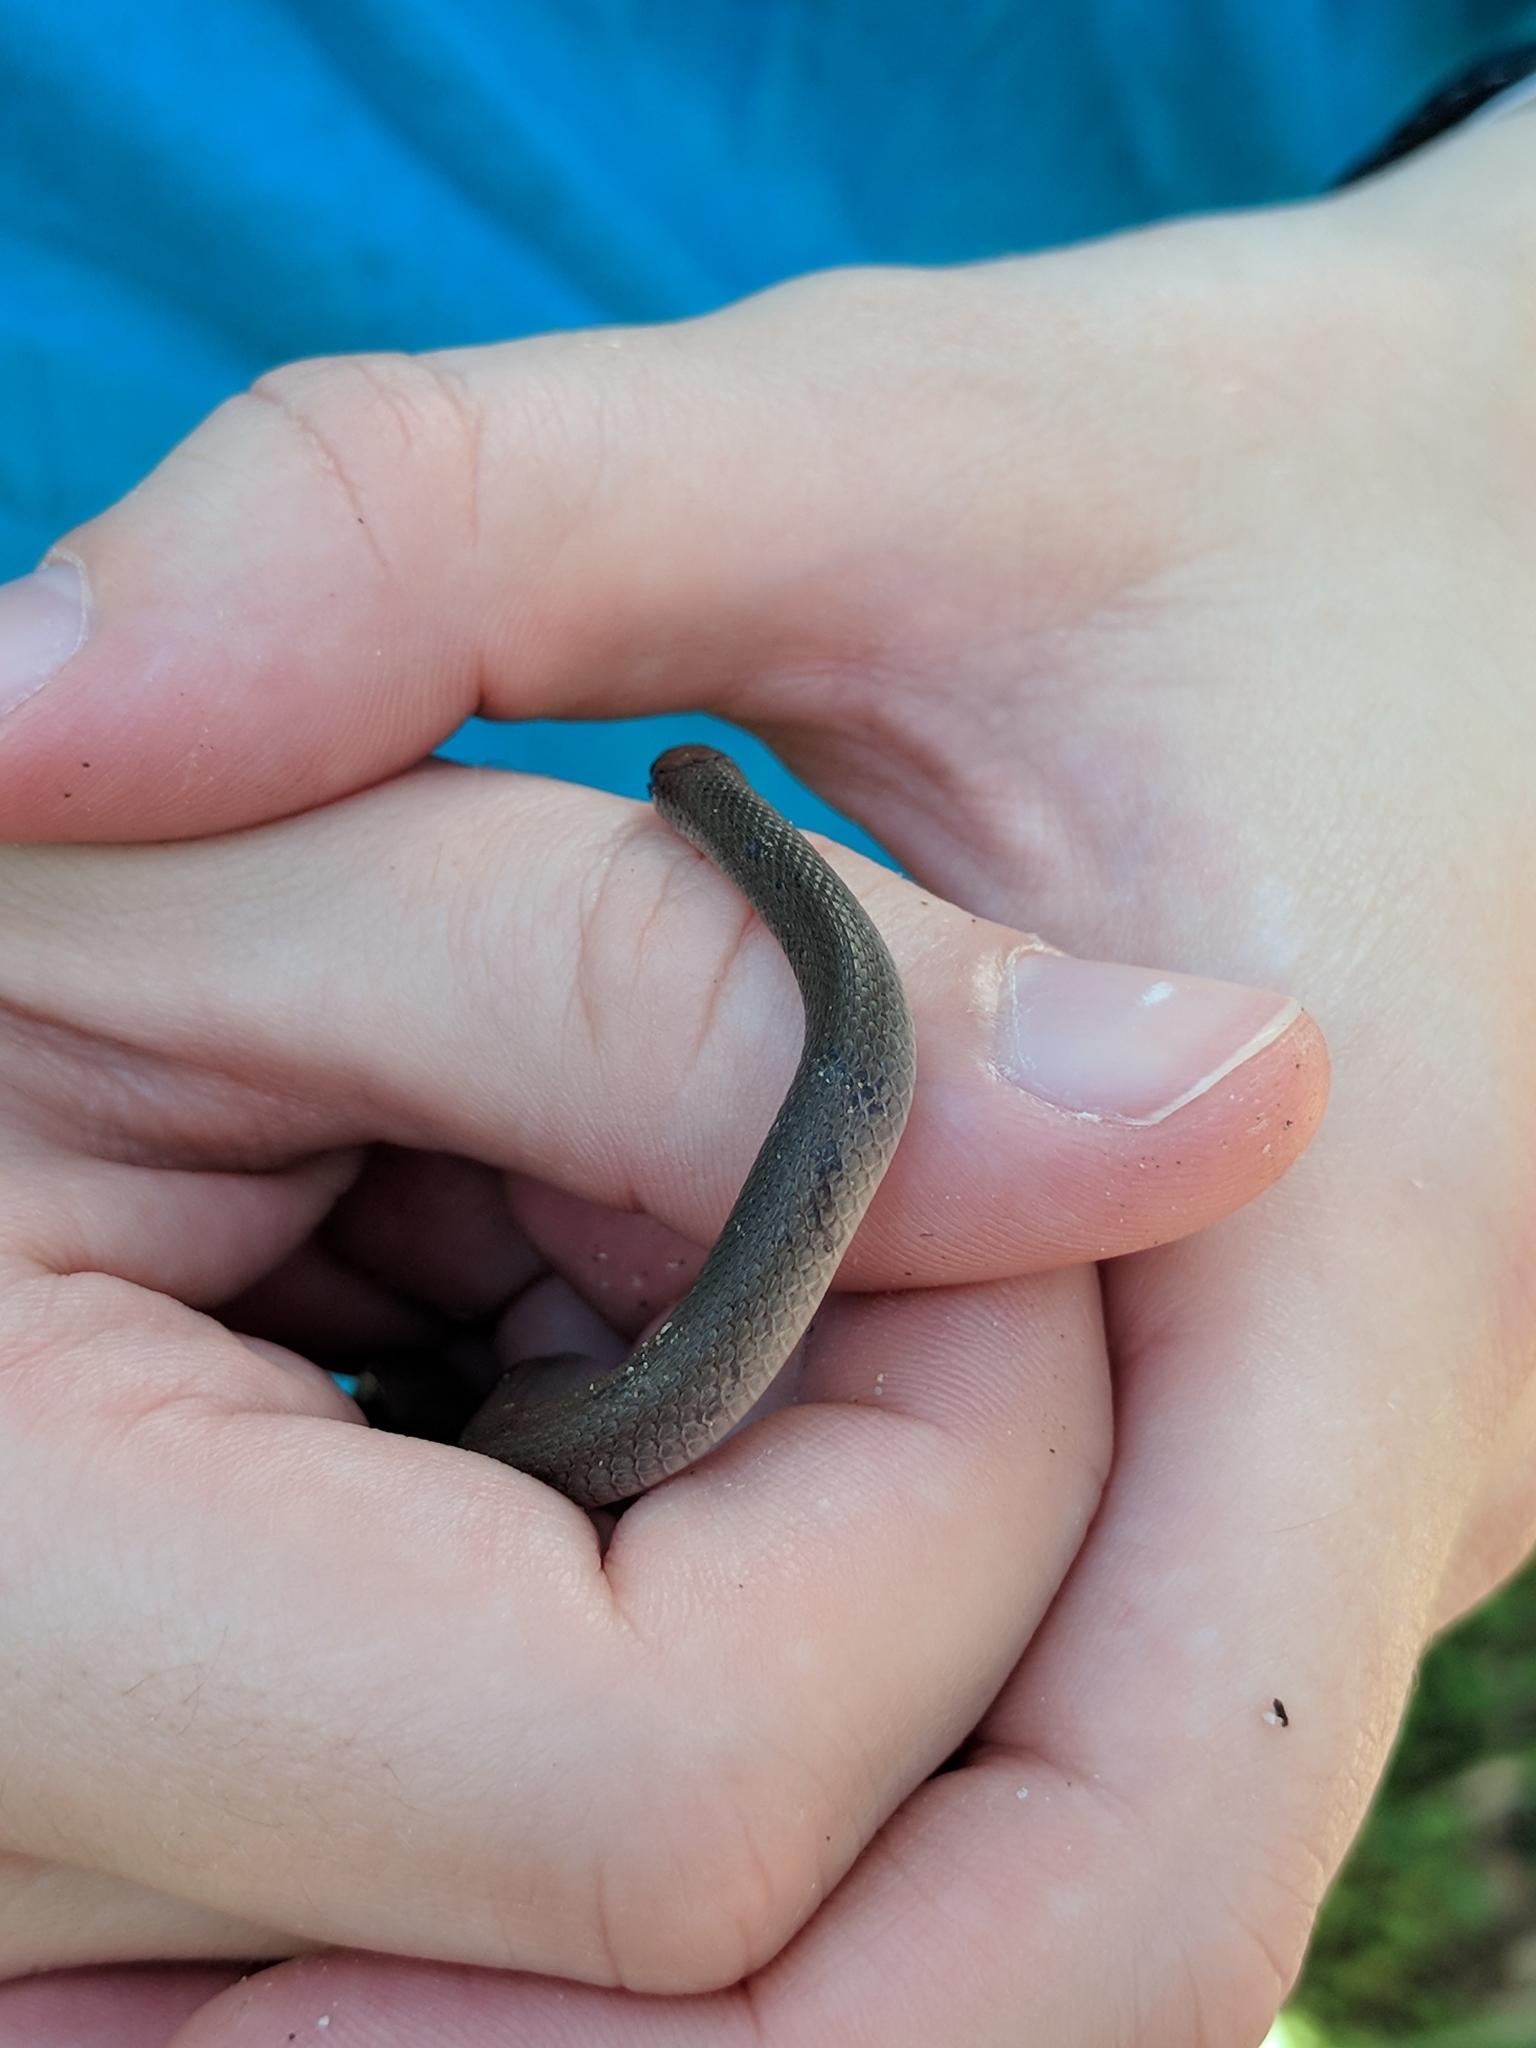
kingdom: Animalia
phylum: Chordata
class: Squamata
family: Colubridae
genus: Haldea
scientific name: Haldea striatula
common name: Rough earth snake
